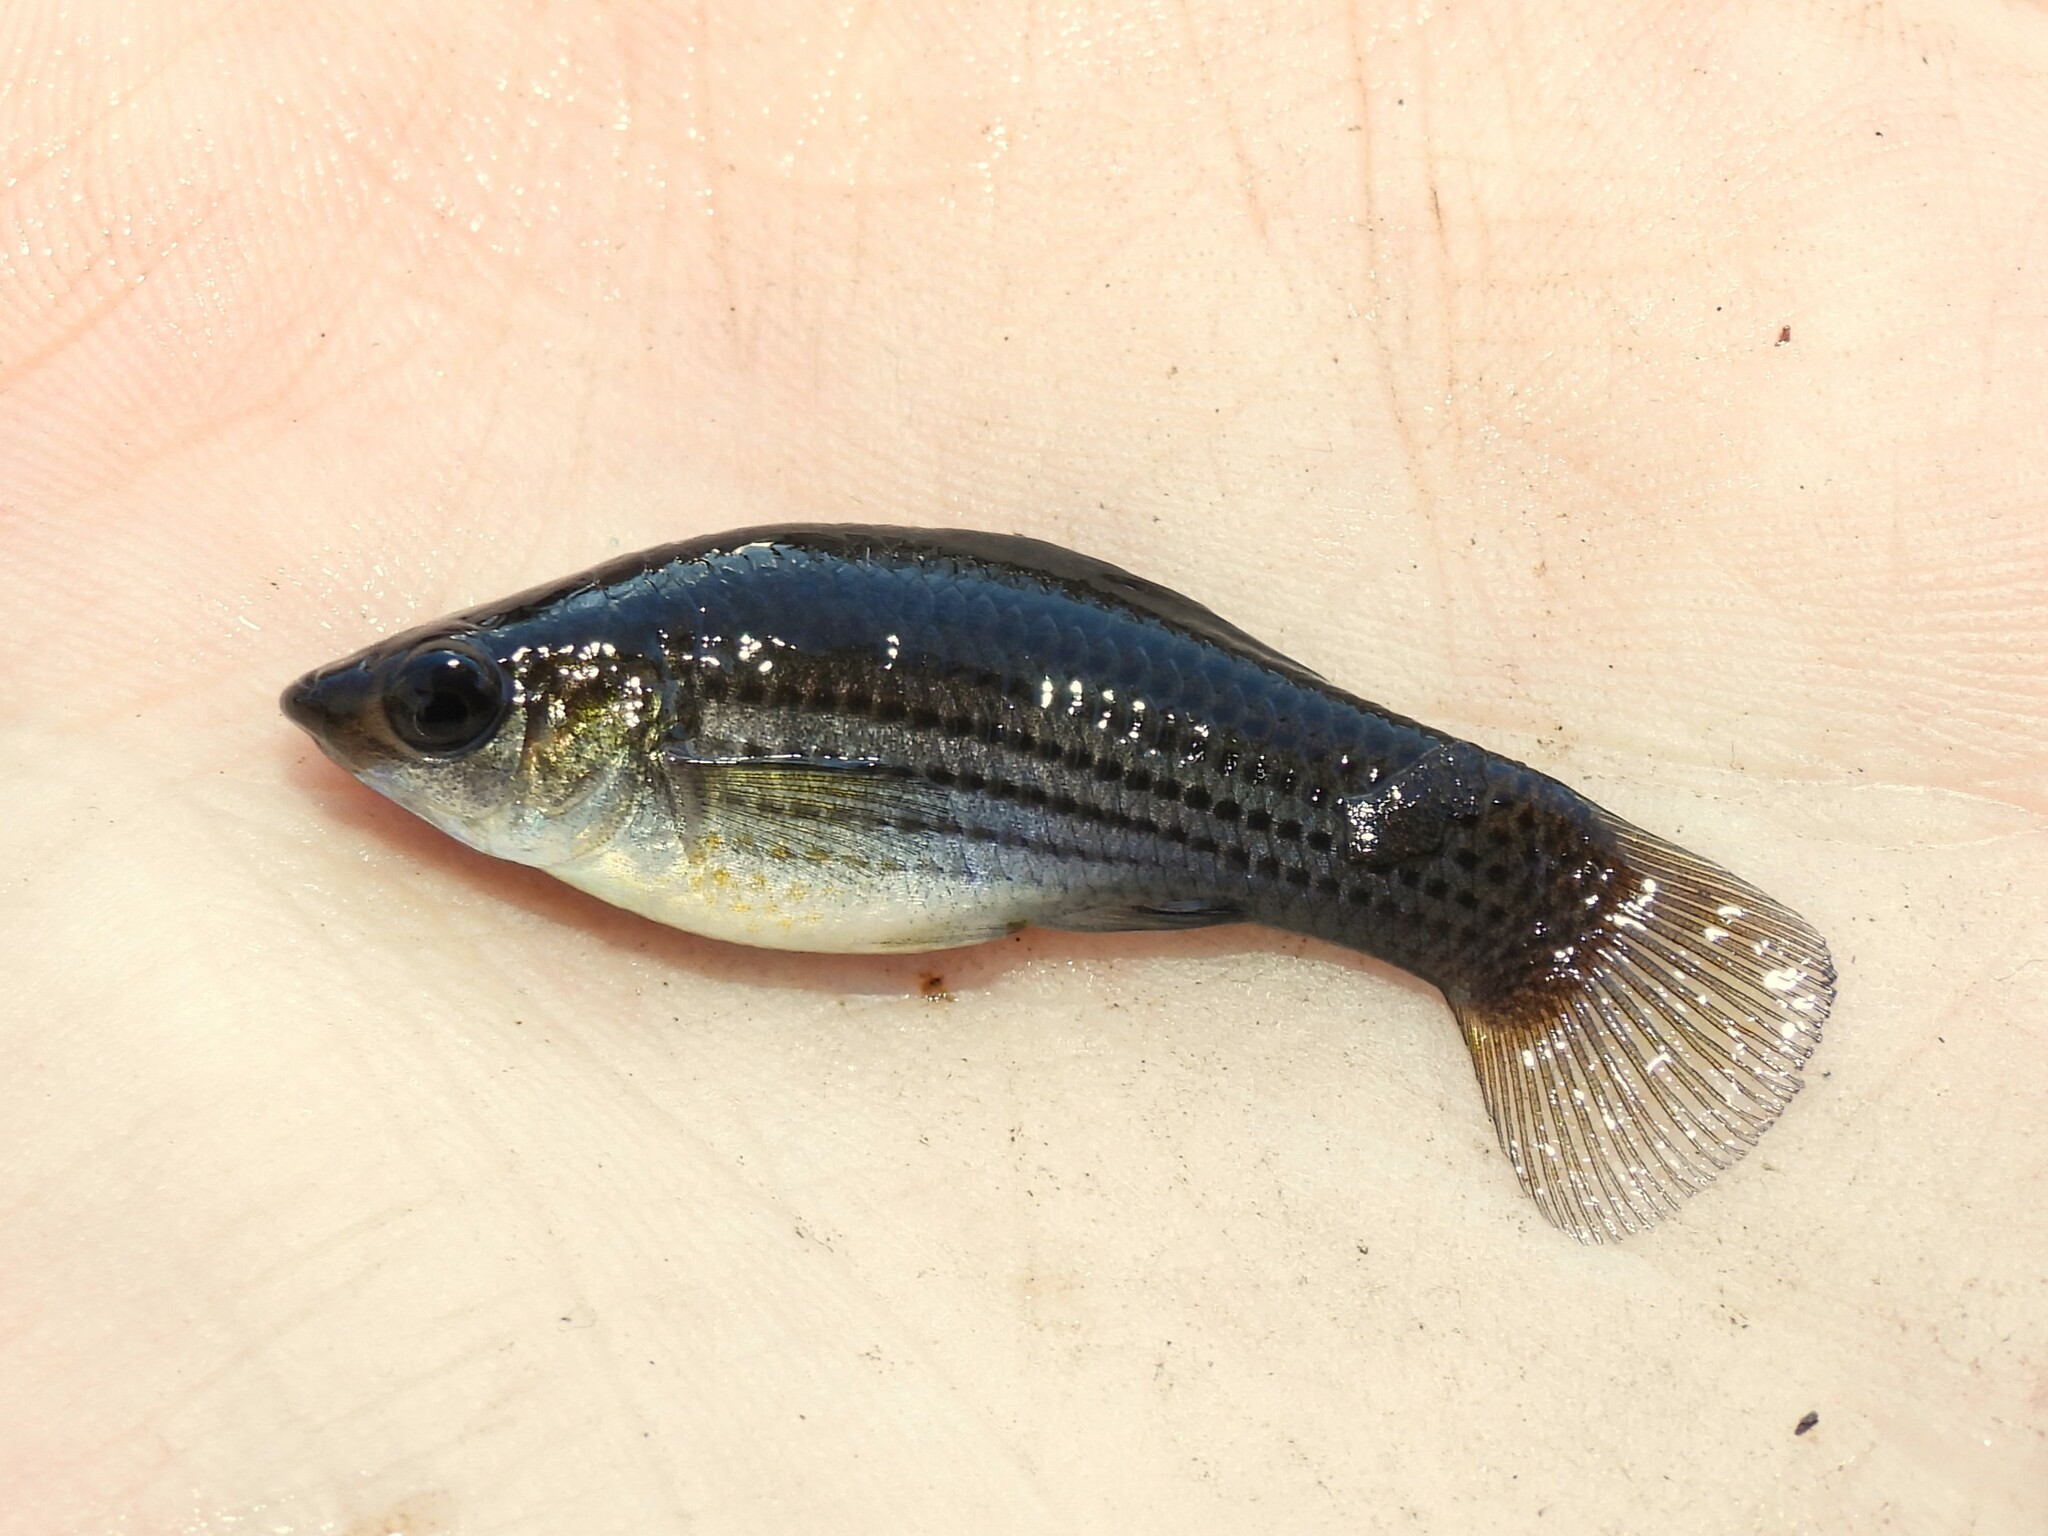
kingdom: Animalia
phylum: Chordata
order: Cyprinodontiformes
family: Poeciliidae
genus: Poecilia
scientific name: Poecilia latipinna
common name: Sailfin molly
